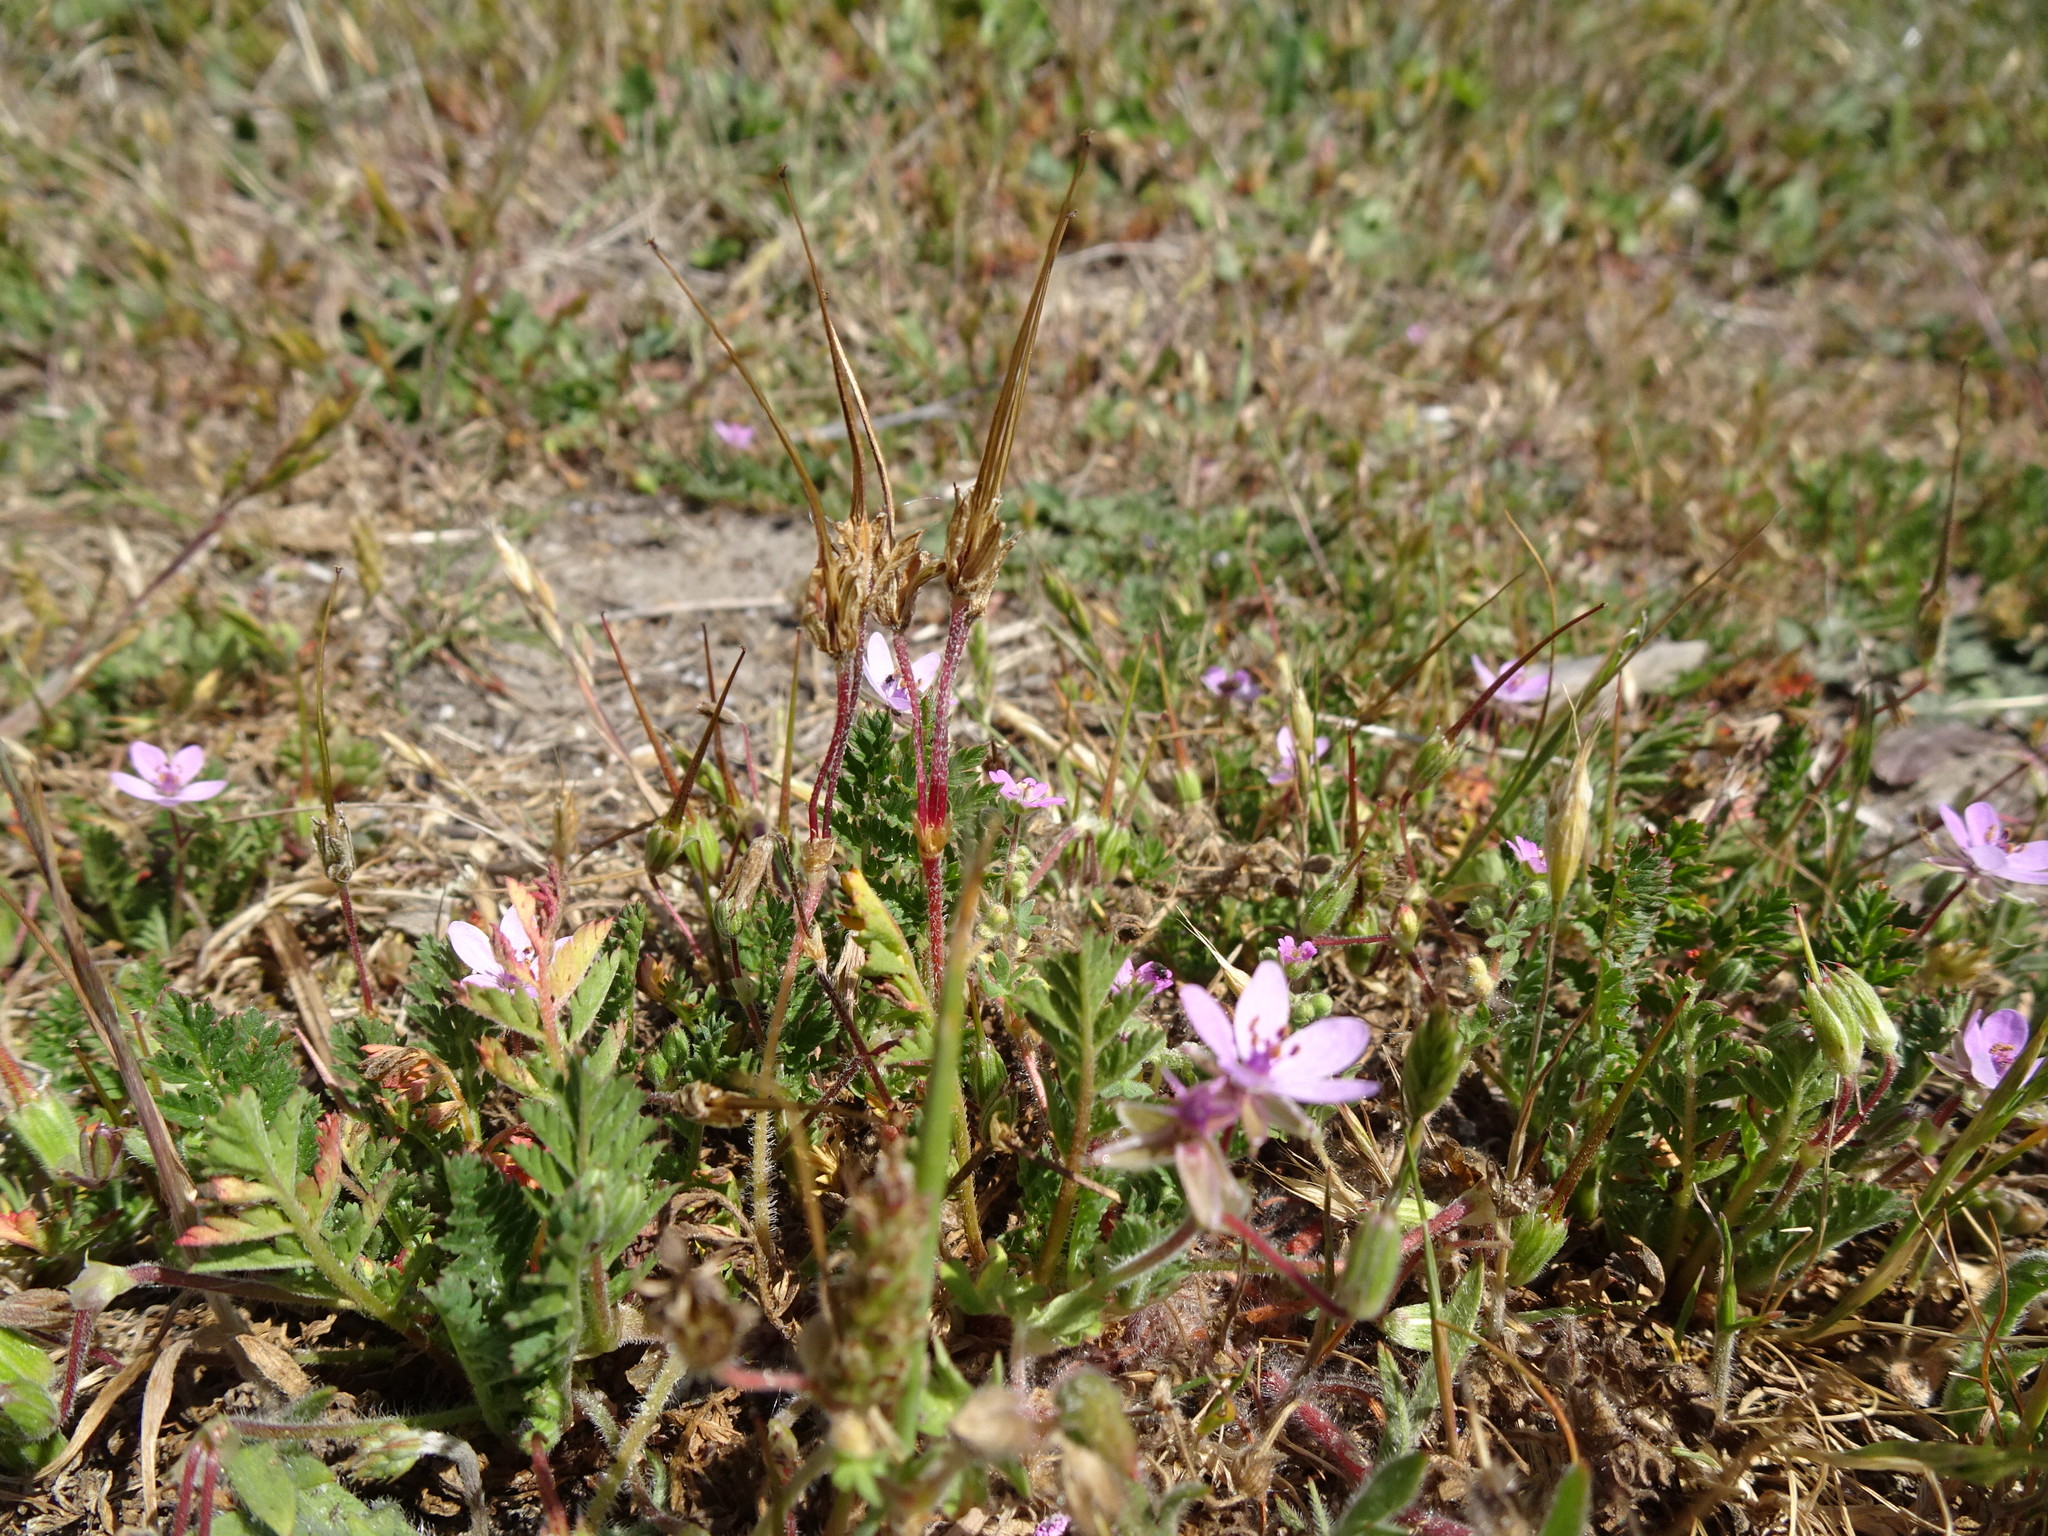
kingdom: Plantae
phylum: Tracheophyta
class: Magnoliopsida
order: Geraniales
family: Geraniaceae
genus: Erodium
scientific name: Erodium cicutarium
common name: Common stork's-bill
